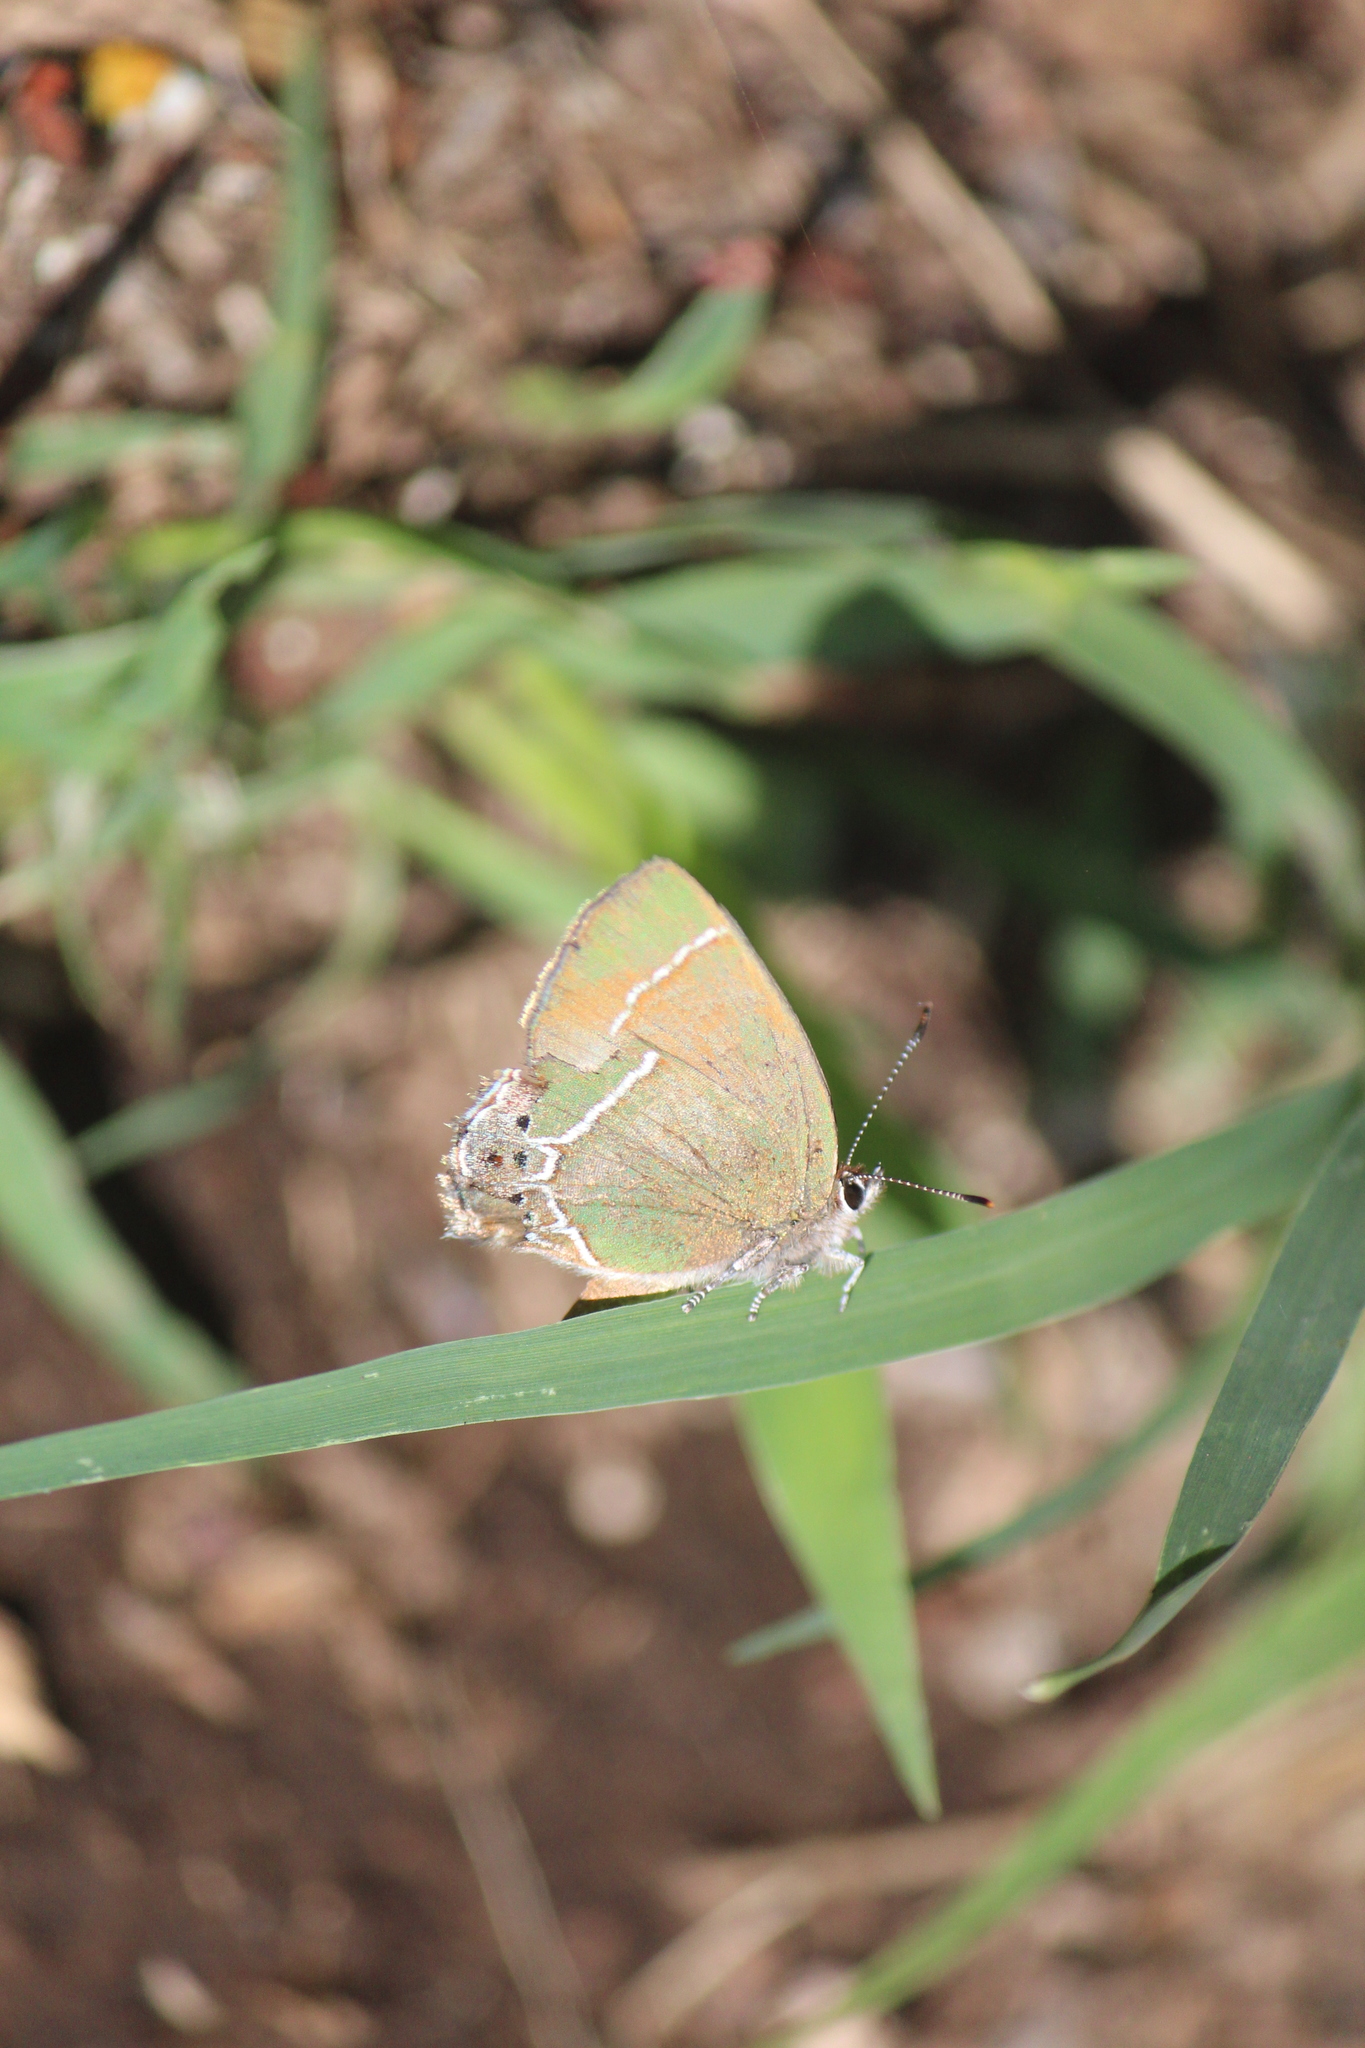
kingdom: Animalia
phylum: Arthropoda
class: Insecta
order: Lepidoptera
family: Lycaenidae
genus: Xamia
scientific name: Xamia xami
